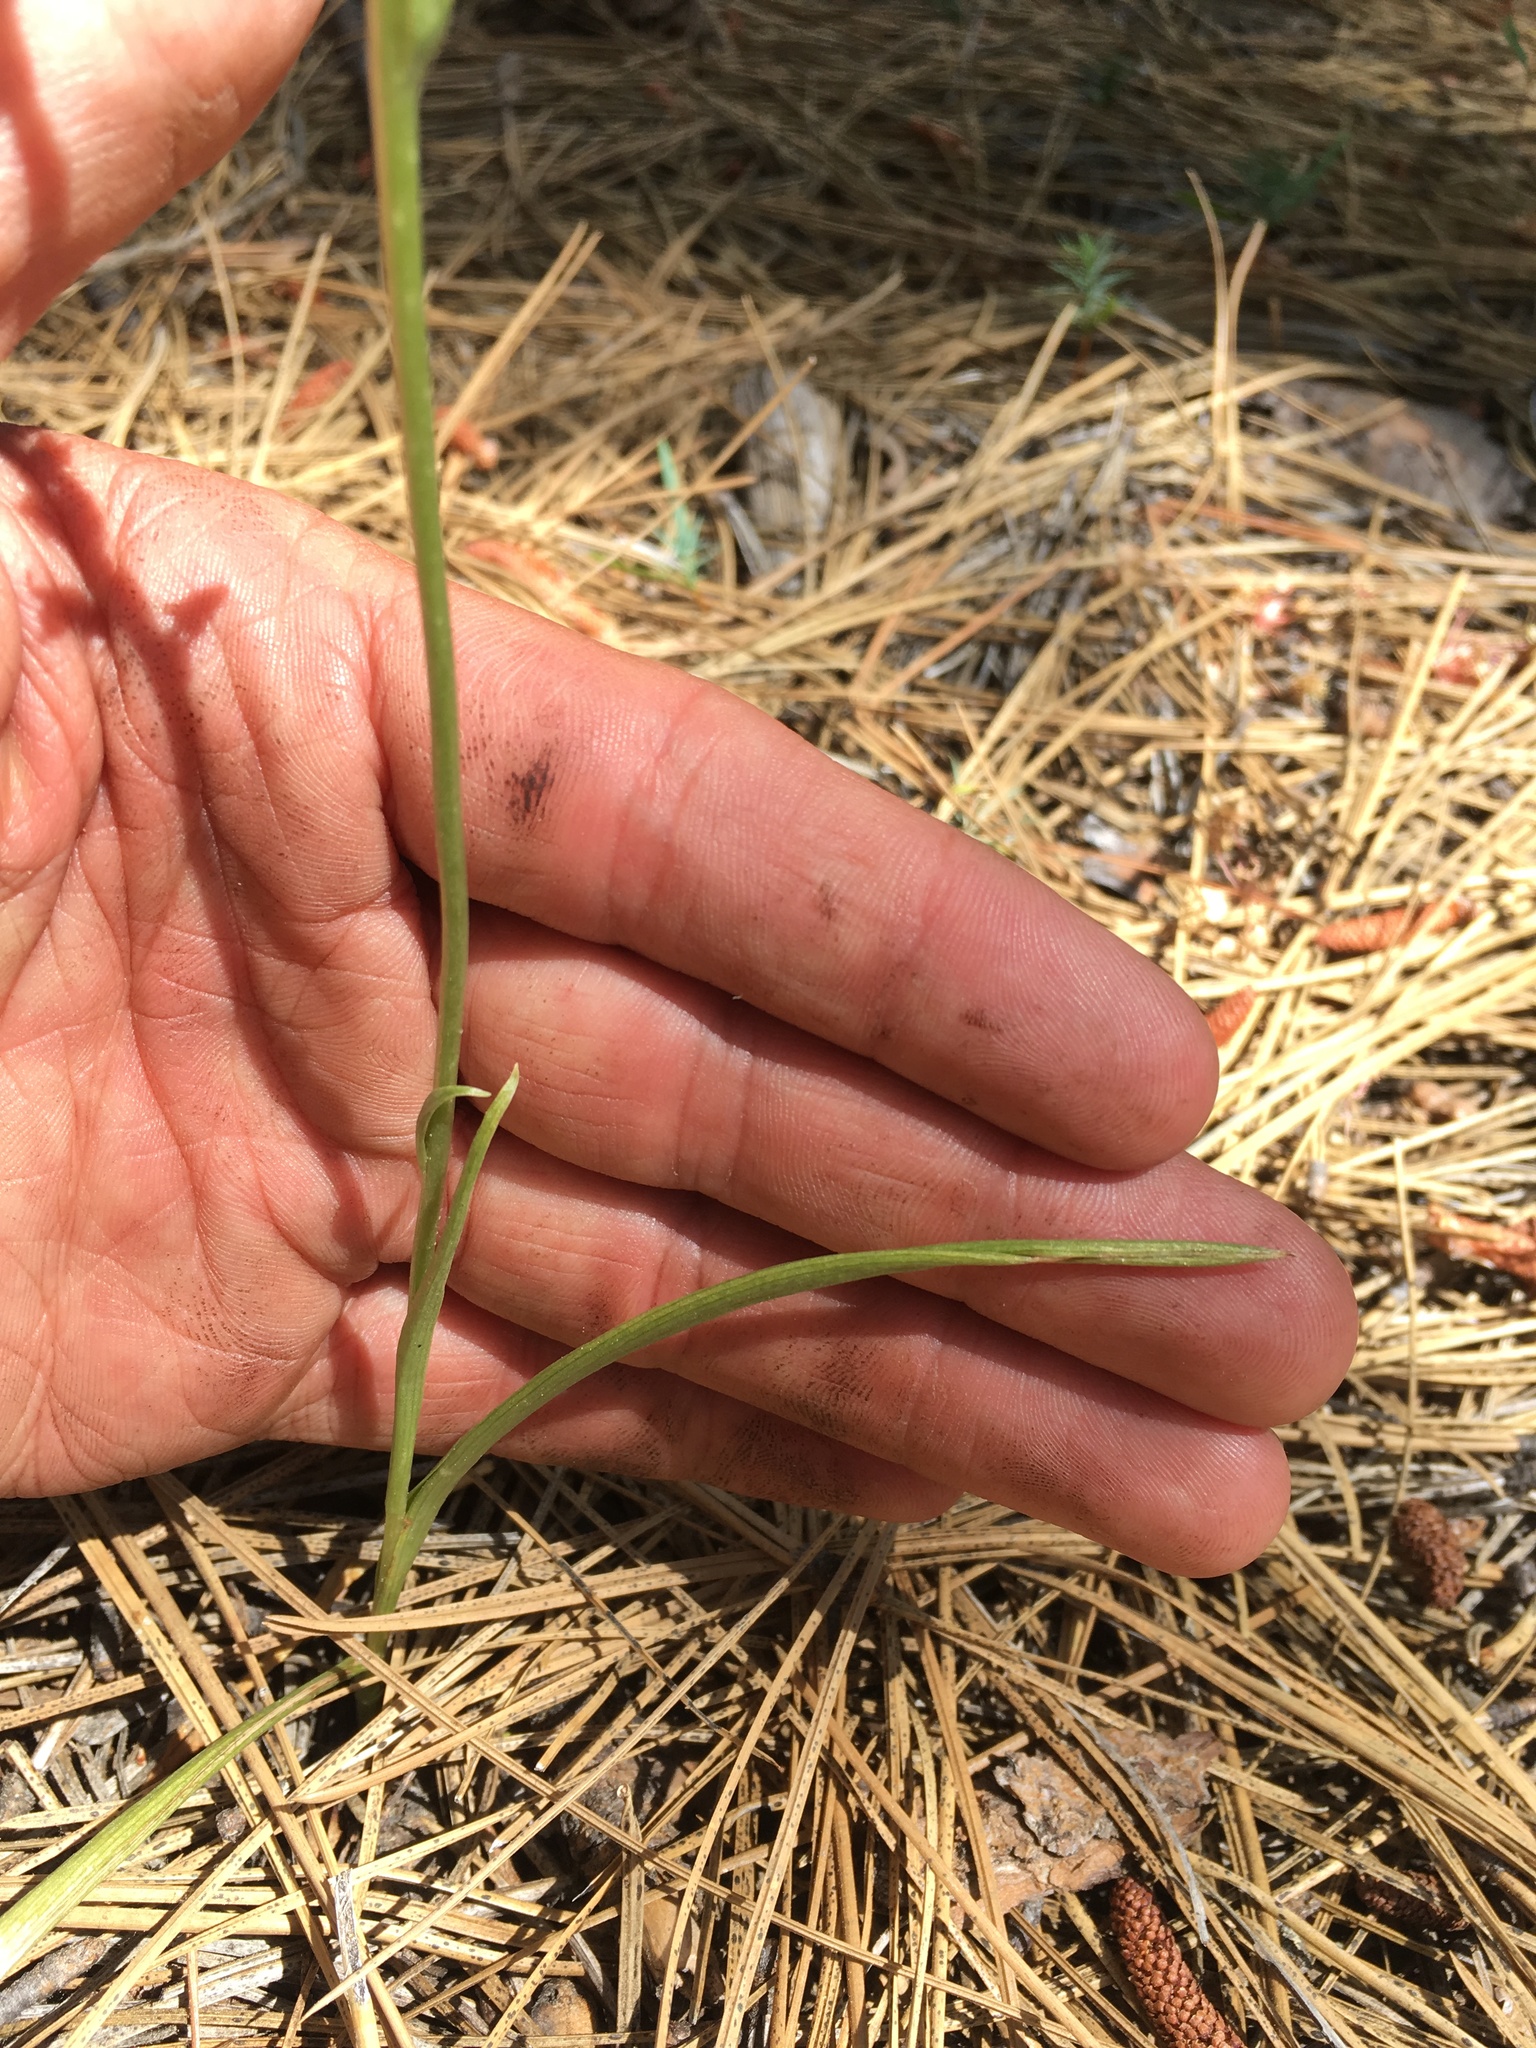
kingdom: Plantae
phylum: Tracheophyta
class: Liliopsida
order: Asparagales
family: Orchidaceae
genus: Platanthera
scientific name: Platanthera colemanii
